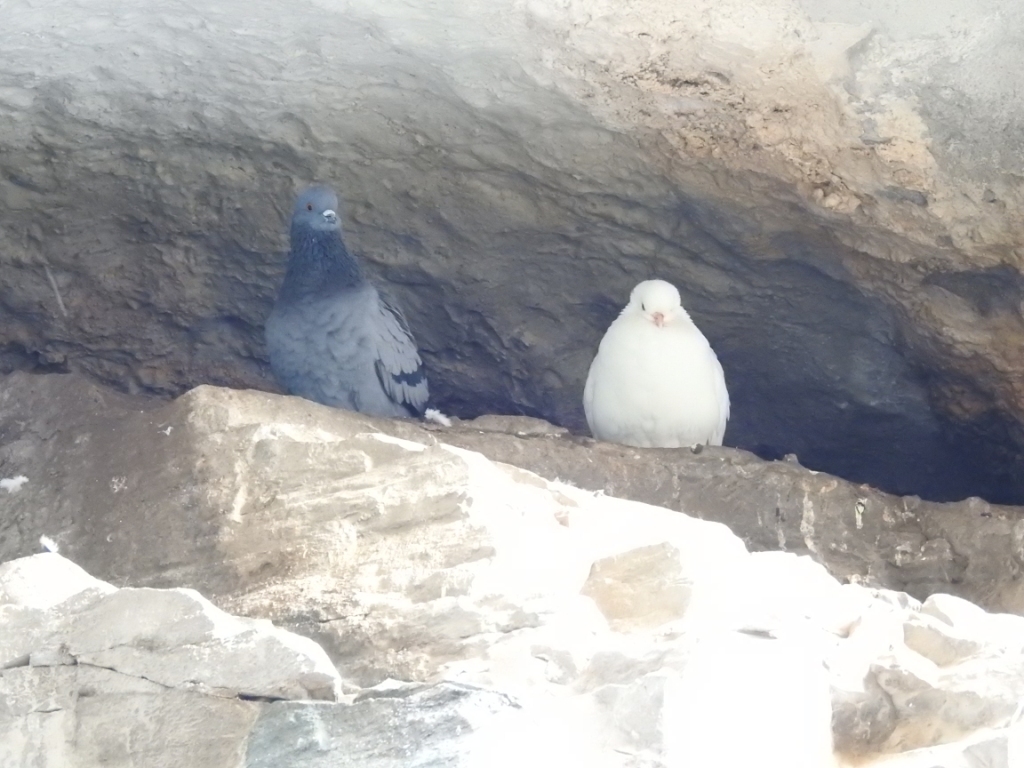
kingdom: Animalia
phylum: Chordata
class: Aves
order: Columbiformes
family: Columbidae
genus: Columba
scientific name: Columba livia
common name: Rock pigeon
